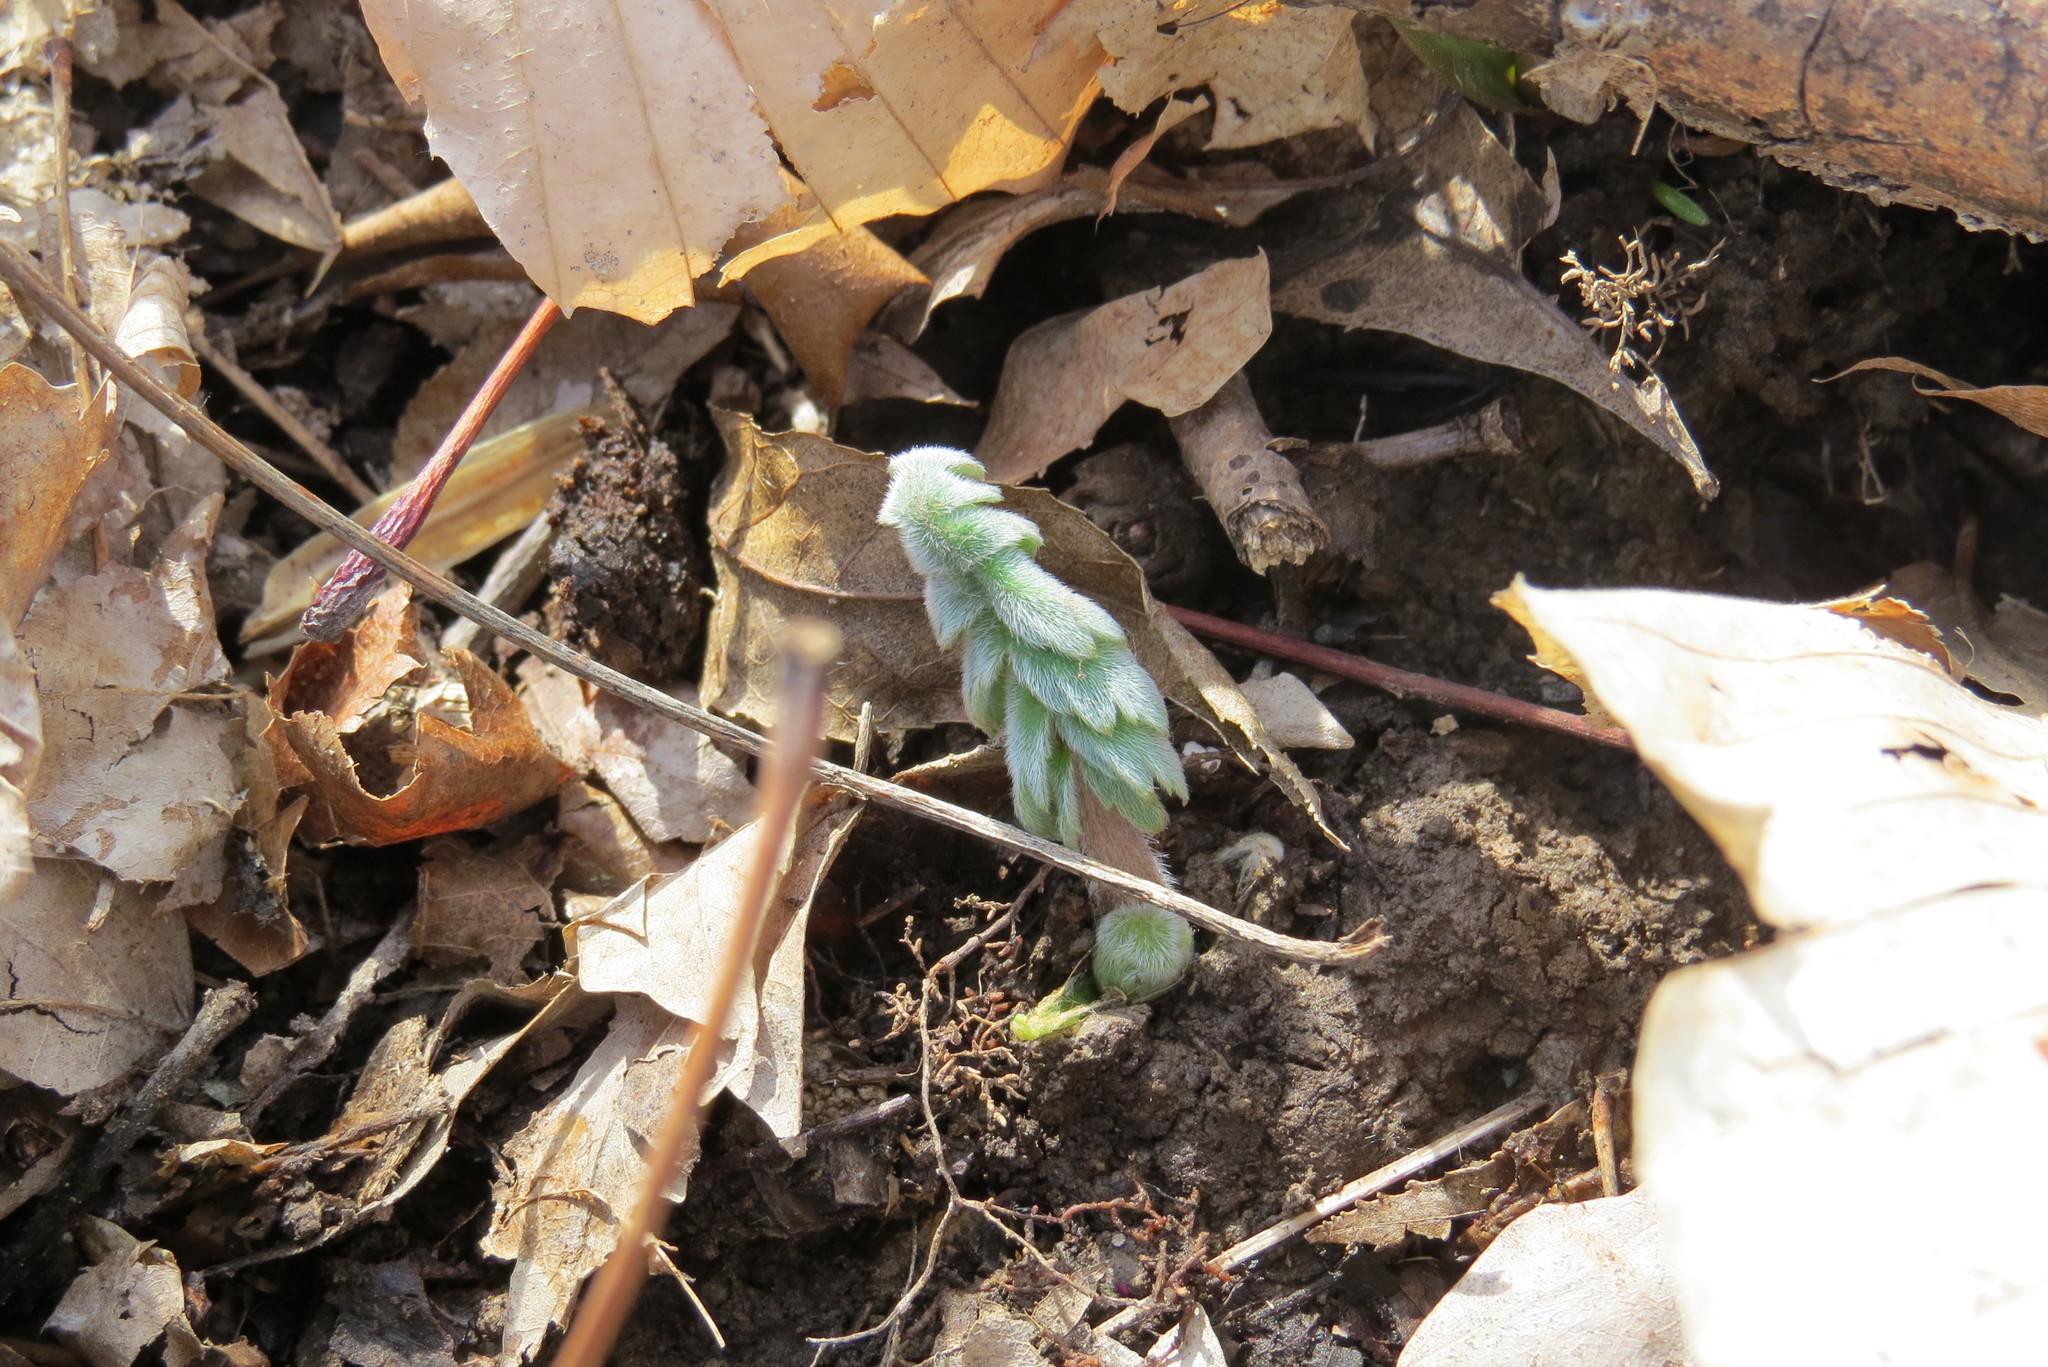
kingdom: Plantae
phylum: Tracheophyta
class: Magnoliopsida
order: Boraginales
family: Hydrophyllaceae
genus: Hydrophyllum
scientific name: Hydrophyllum macrophyllum
